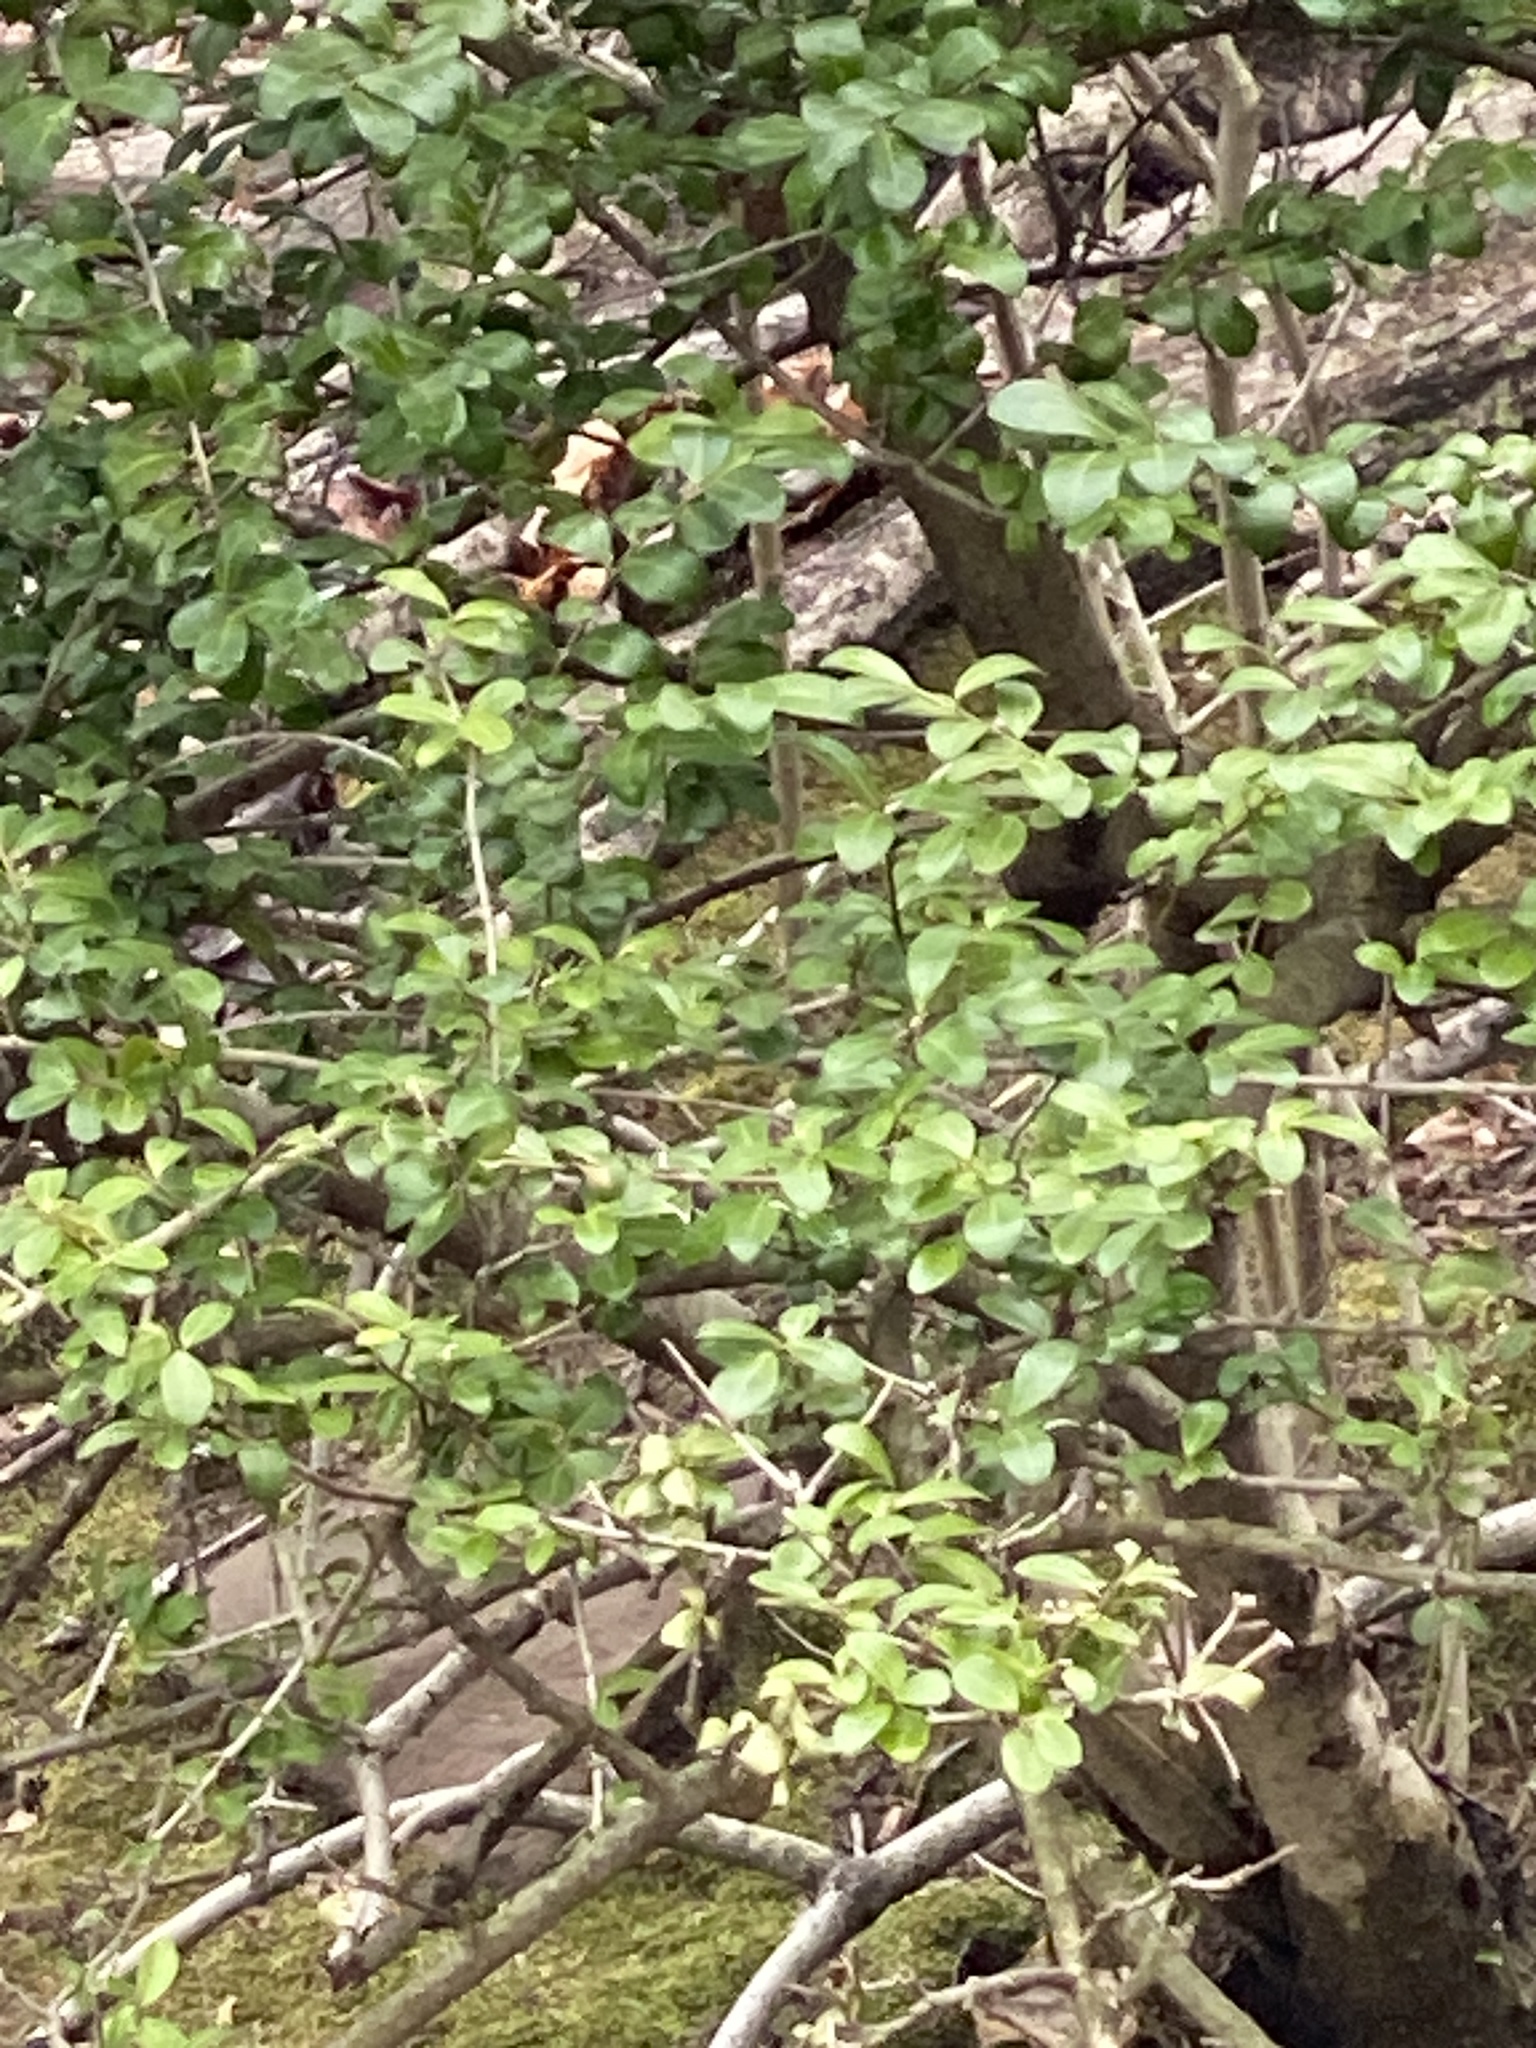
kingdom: Plantae
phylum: Tracheophyta
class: Magnoliopsida
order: Aquifoliales
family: Aquifoliaceae
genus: Ilex
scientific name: Ilex crenata
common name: Japanese holly
